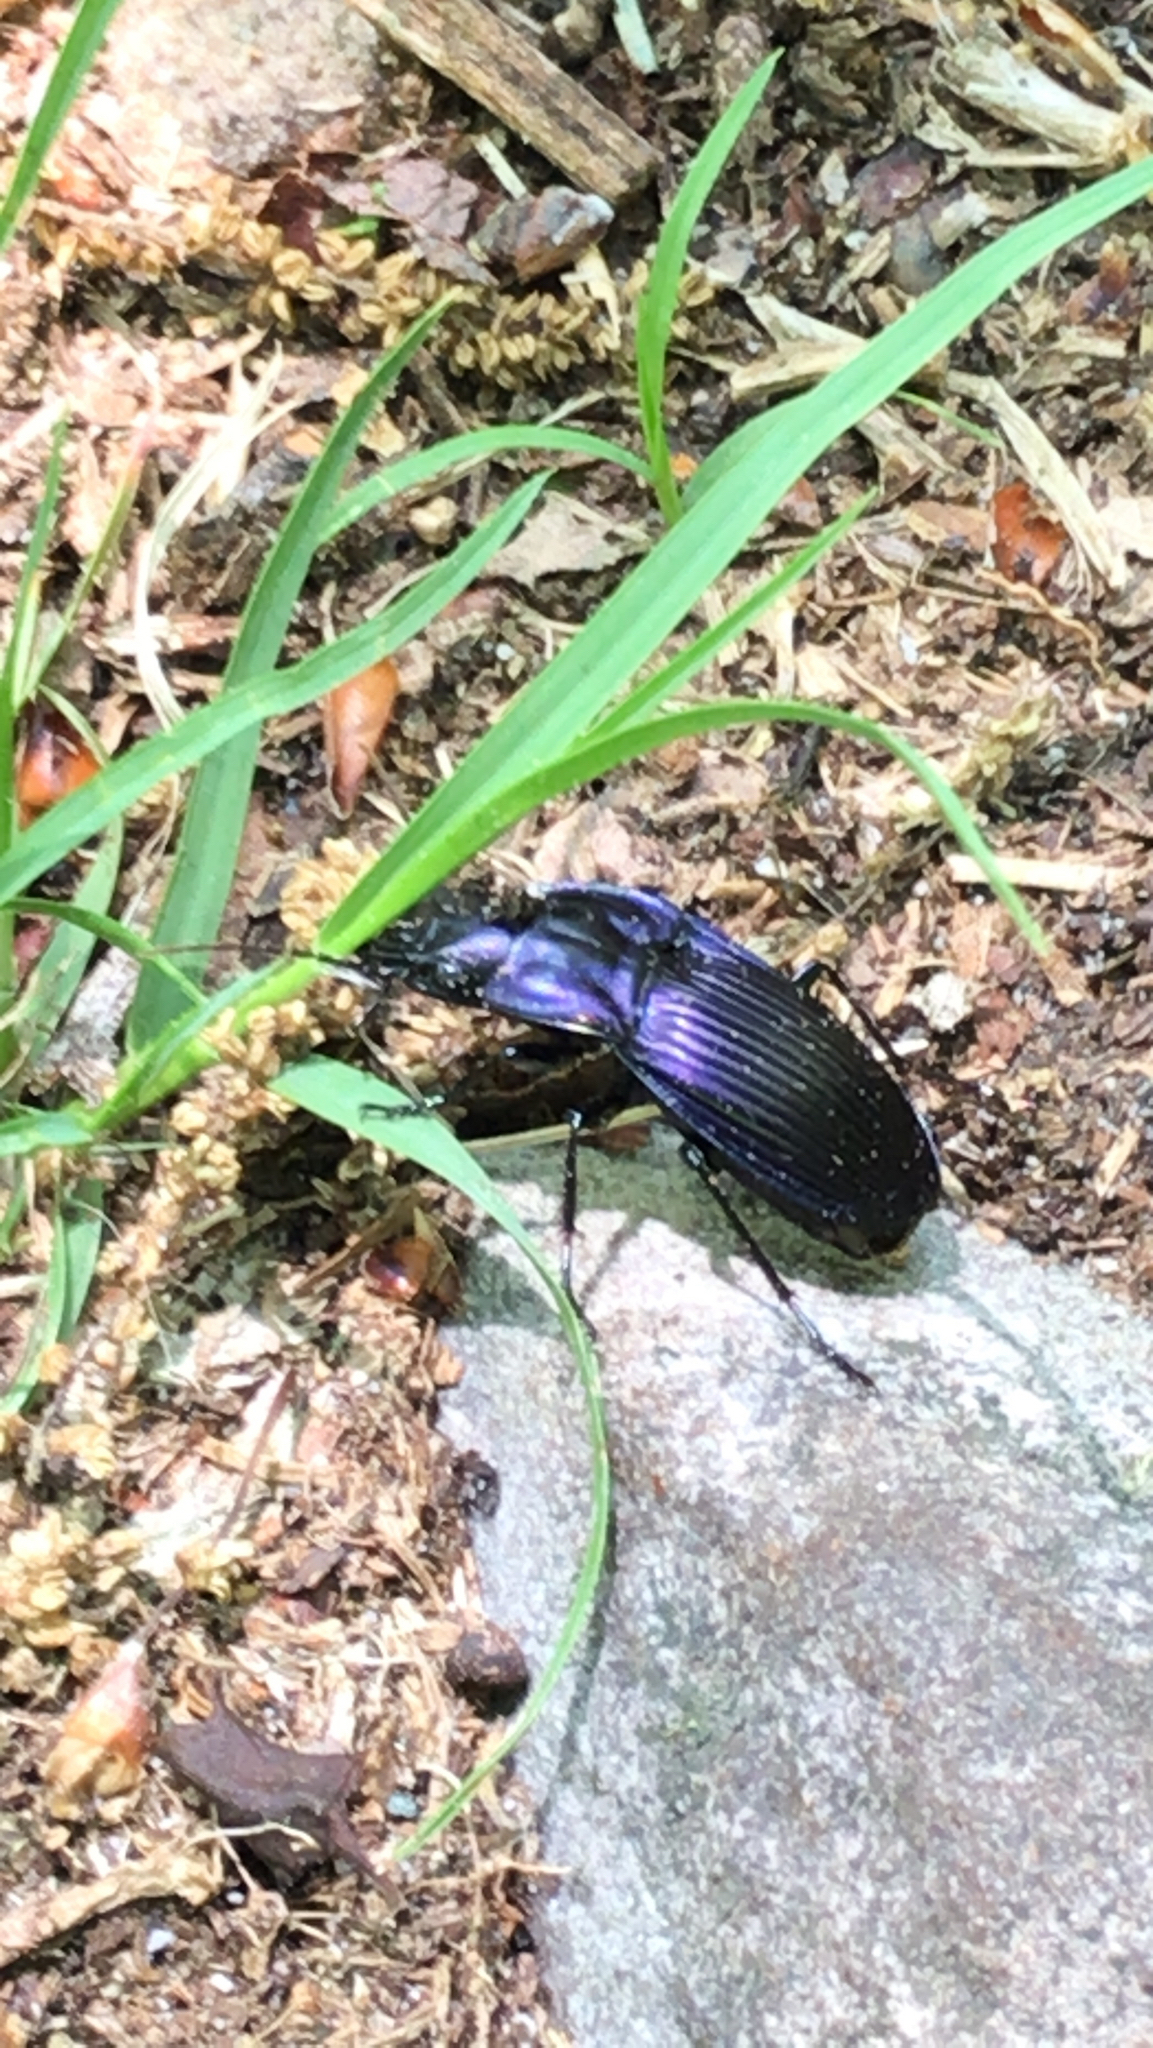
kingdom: Animalia
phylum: Arthropoda
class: Insecta
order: Coleoptera
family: Carabidae
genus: Dicaelus
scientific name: Dicaelus purpuratus
